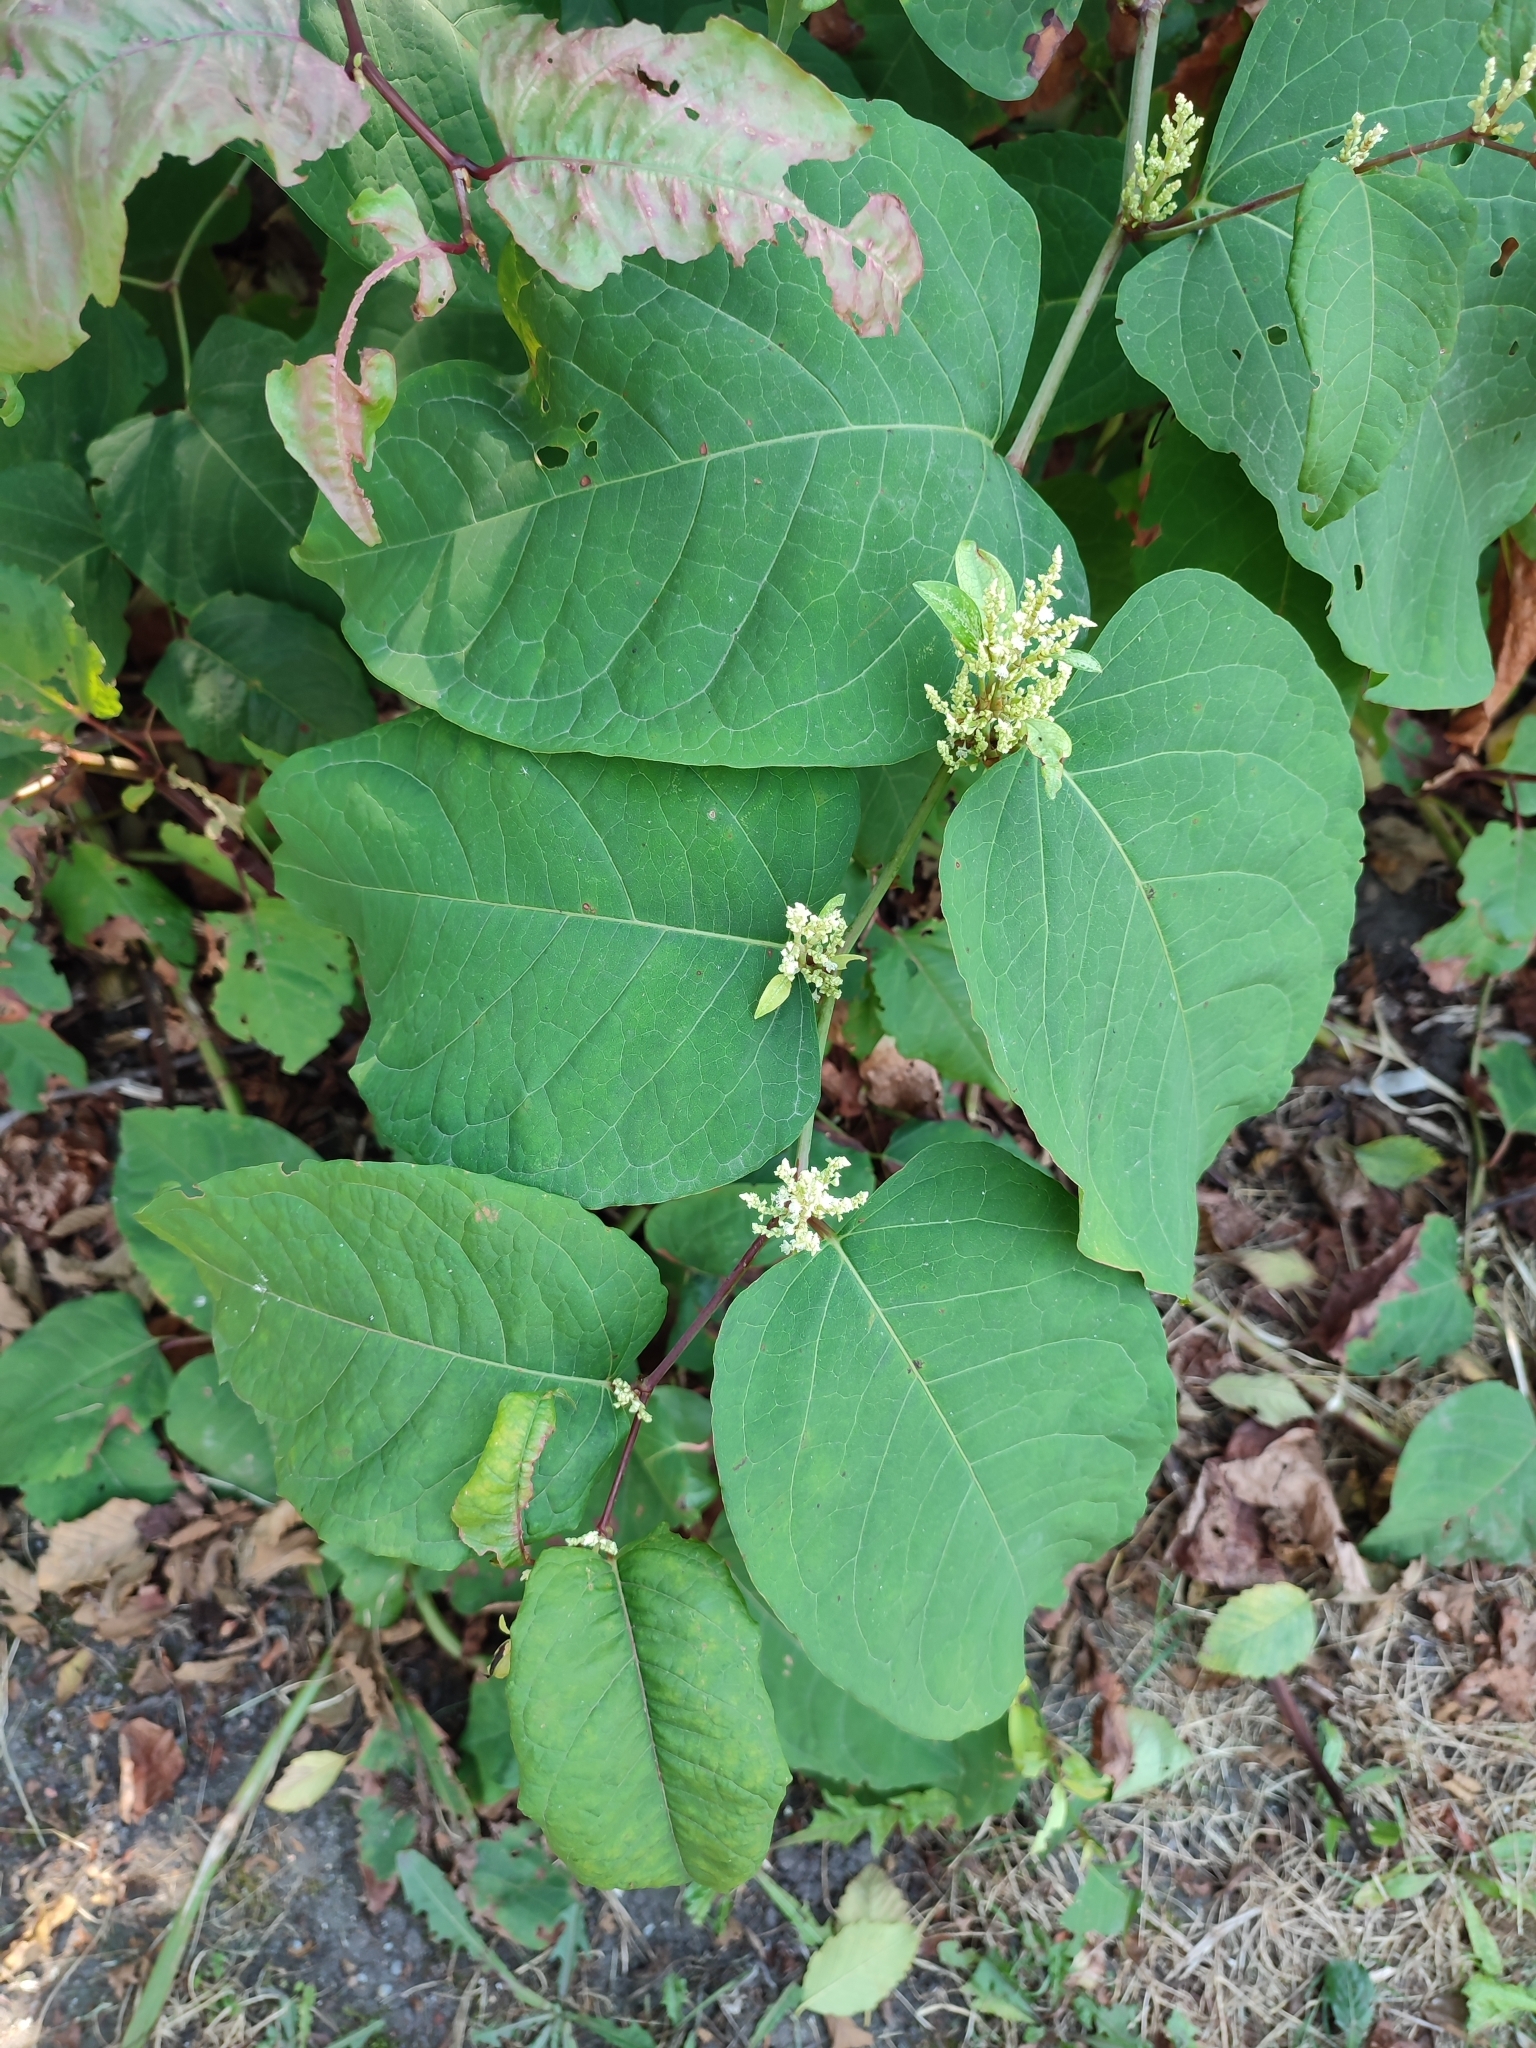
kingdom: Plantae
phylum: Tracheophyta
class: Magnoliopsida
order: Caryophyllales
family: Polygonaceae
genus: Reynoutria
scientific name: Reynoutria japonica
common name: Japanese knotweed
